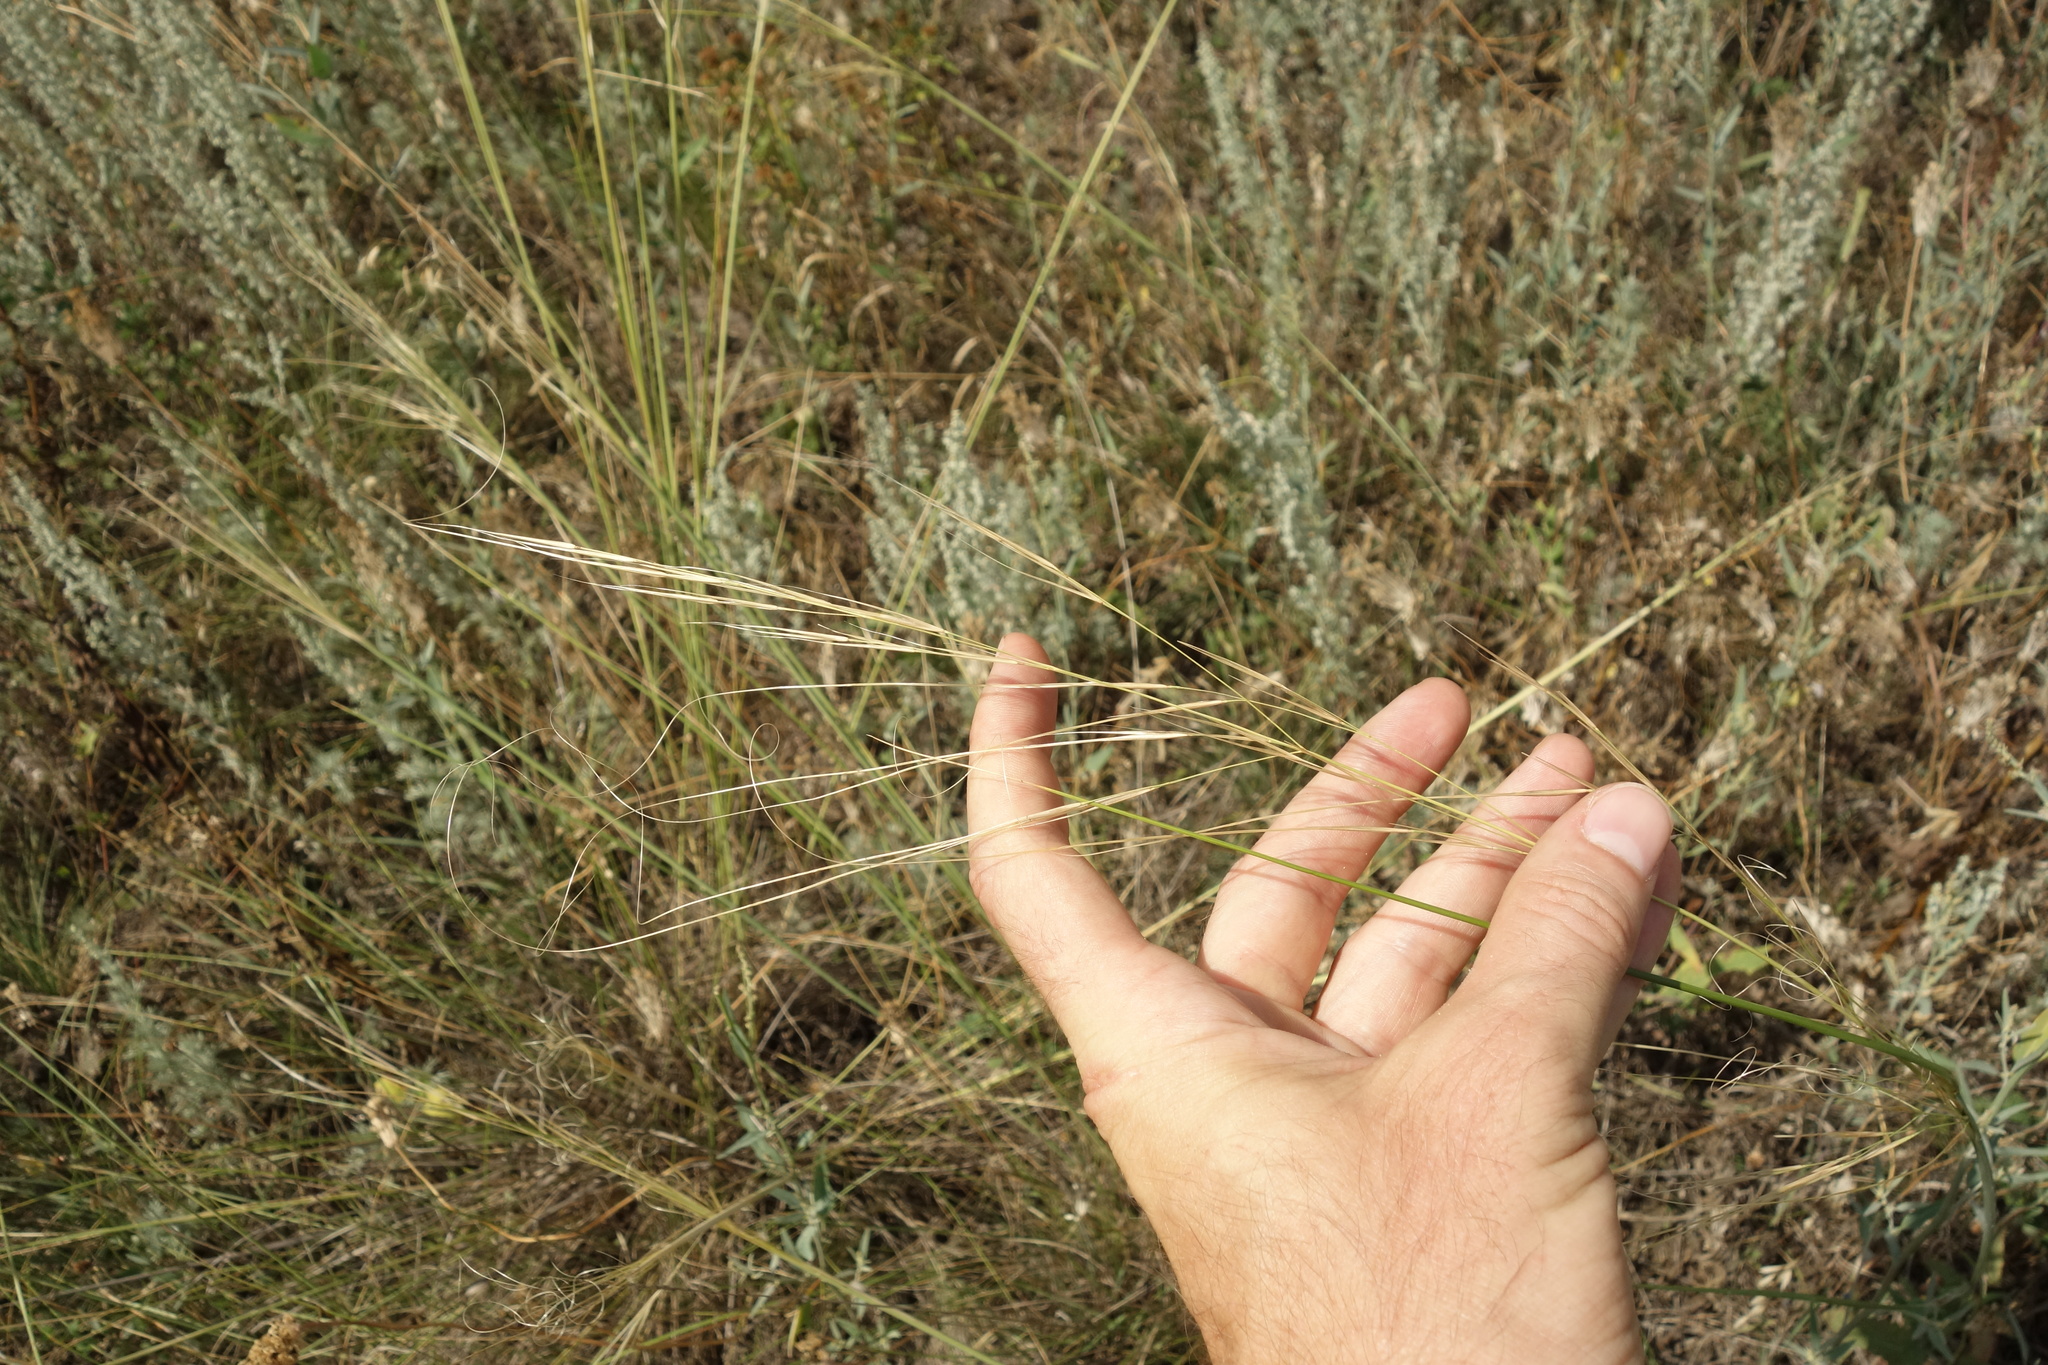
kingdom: Plantae
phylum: Tracheophyta
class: Liliopsida
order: Poales
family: Poaceae
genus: Stipa
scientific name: Stipa capillata
